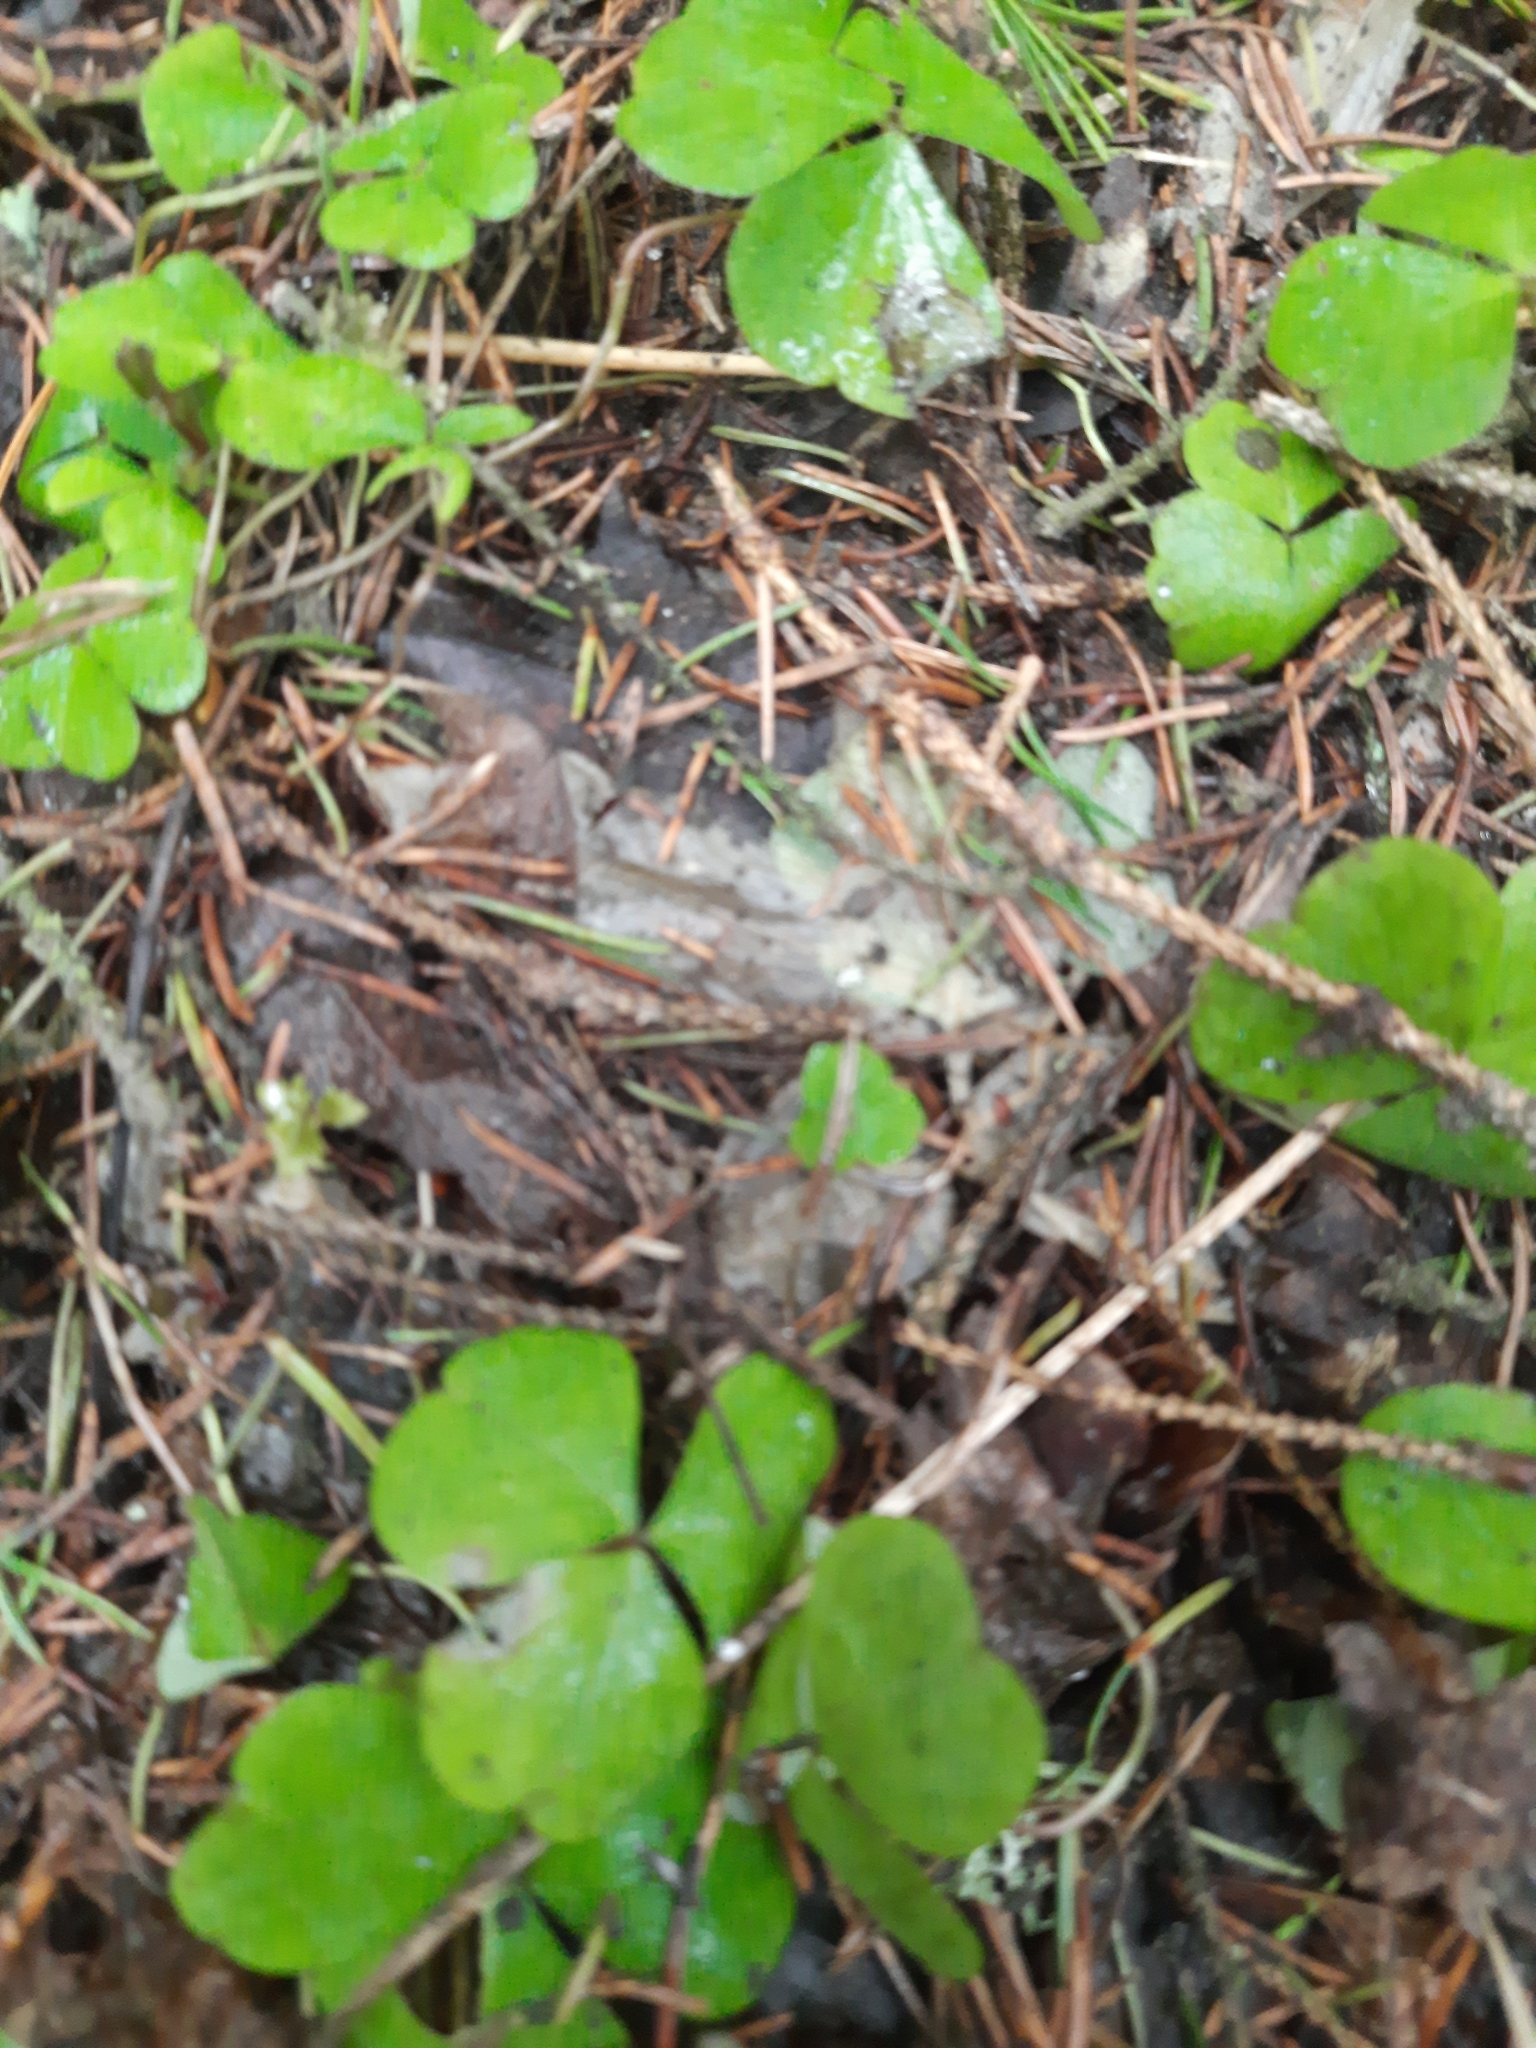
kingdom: Plantae
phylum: Tracheophyta
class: Magnoliopsida
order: Oxalidales
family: Oxalidaceae
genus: Oxalis
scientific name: Oxalis acetosella
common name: Wood-sorrel
